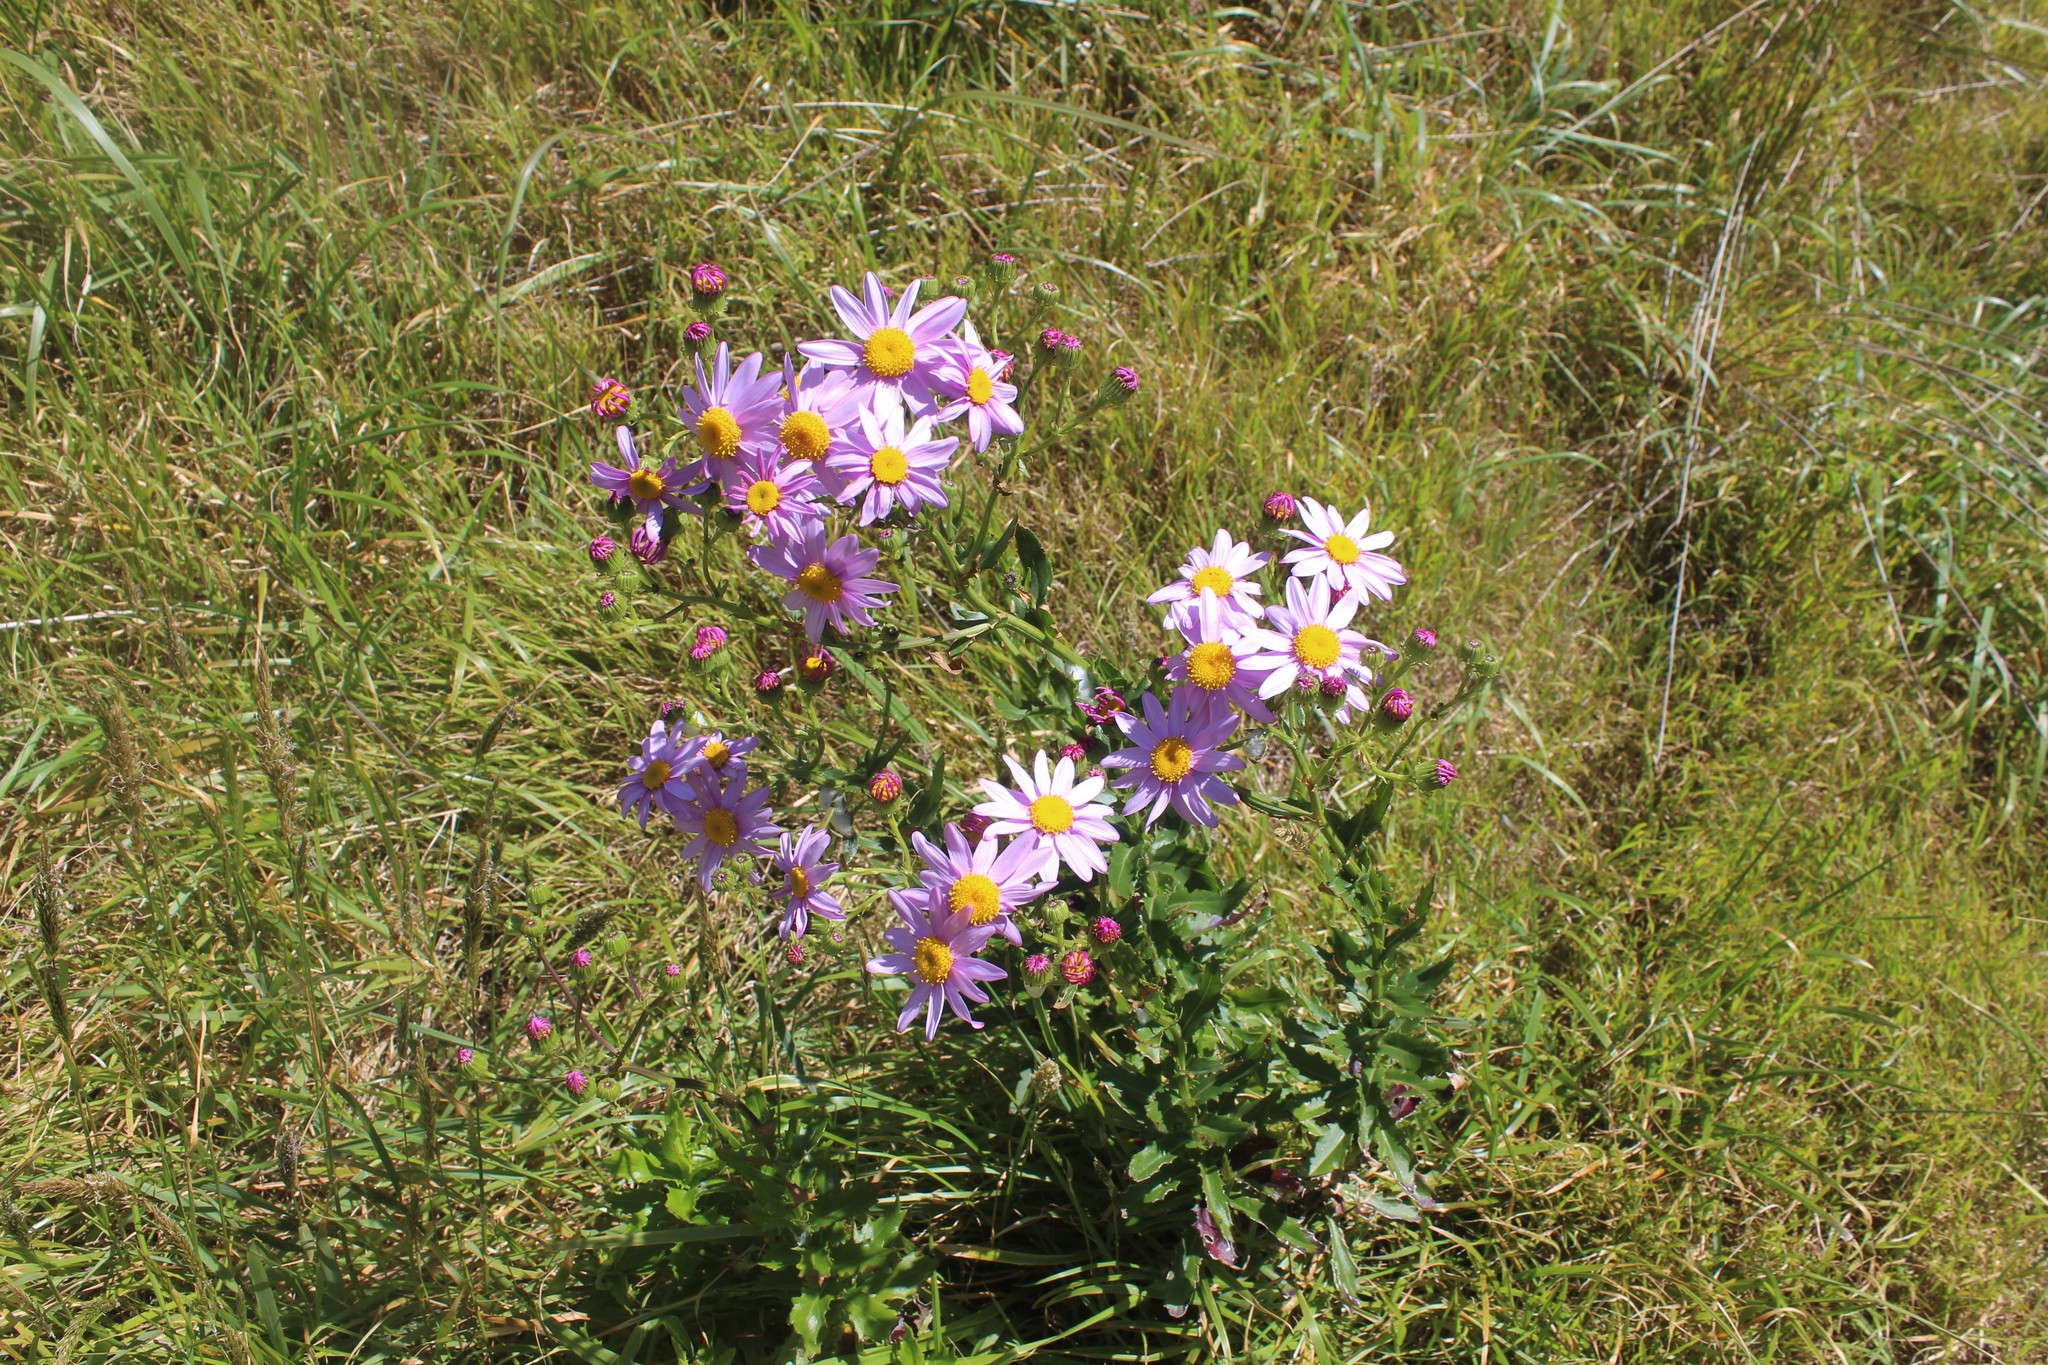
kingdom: Plantae
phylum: Tracheophyta
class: Magnoliopsida
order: Asterales
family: Asteraceae
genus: Senecio
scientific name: Senecio glastifolius
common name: Woad-leaved ragwort
